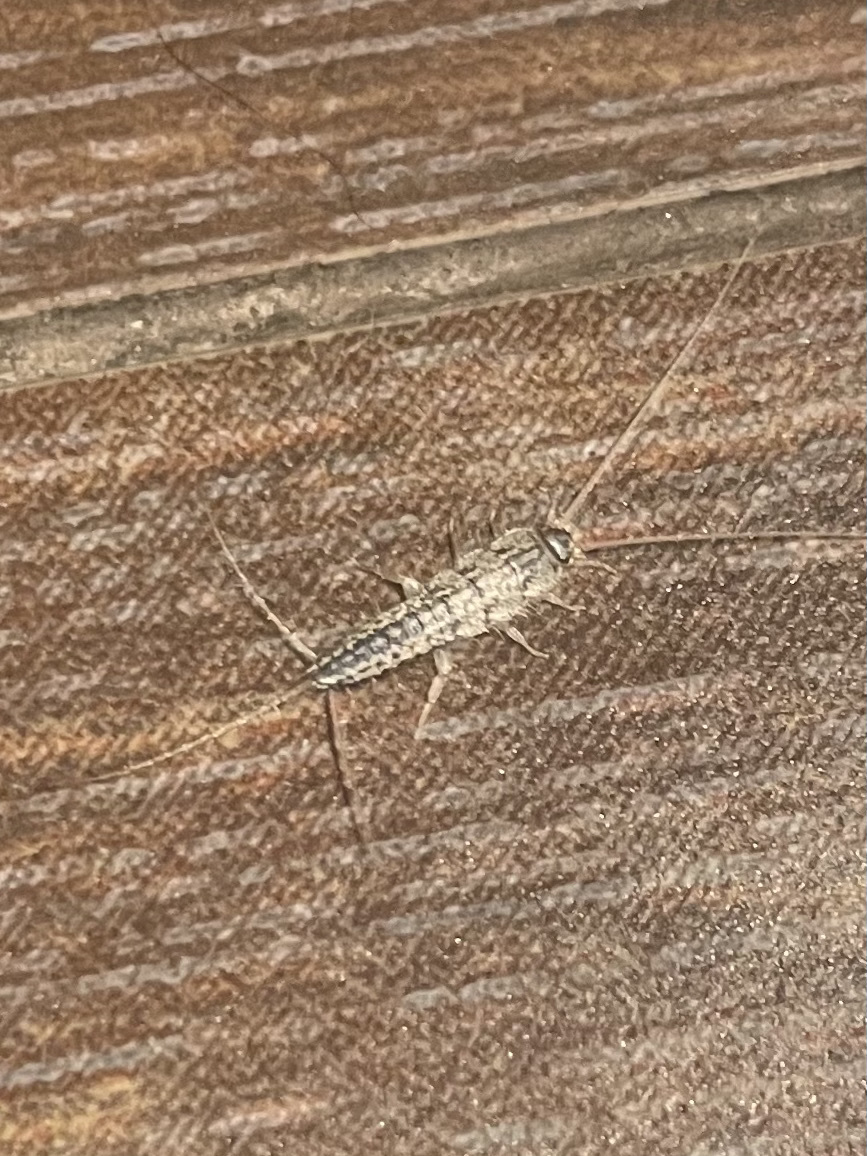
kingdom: Animalia
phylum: Arthropoda
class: Insecta
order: Zygentoma
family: Lepismatidae
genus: Ctenolepisma
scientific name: Ctenolepisma lineata
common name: Four-lined silverfish
